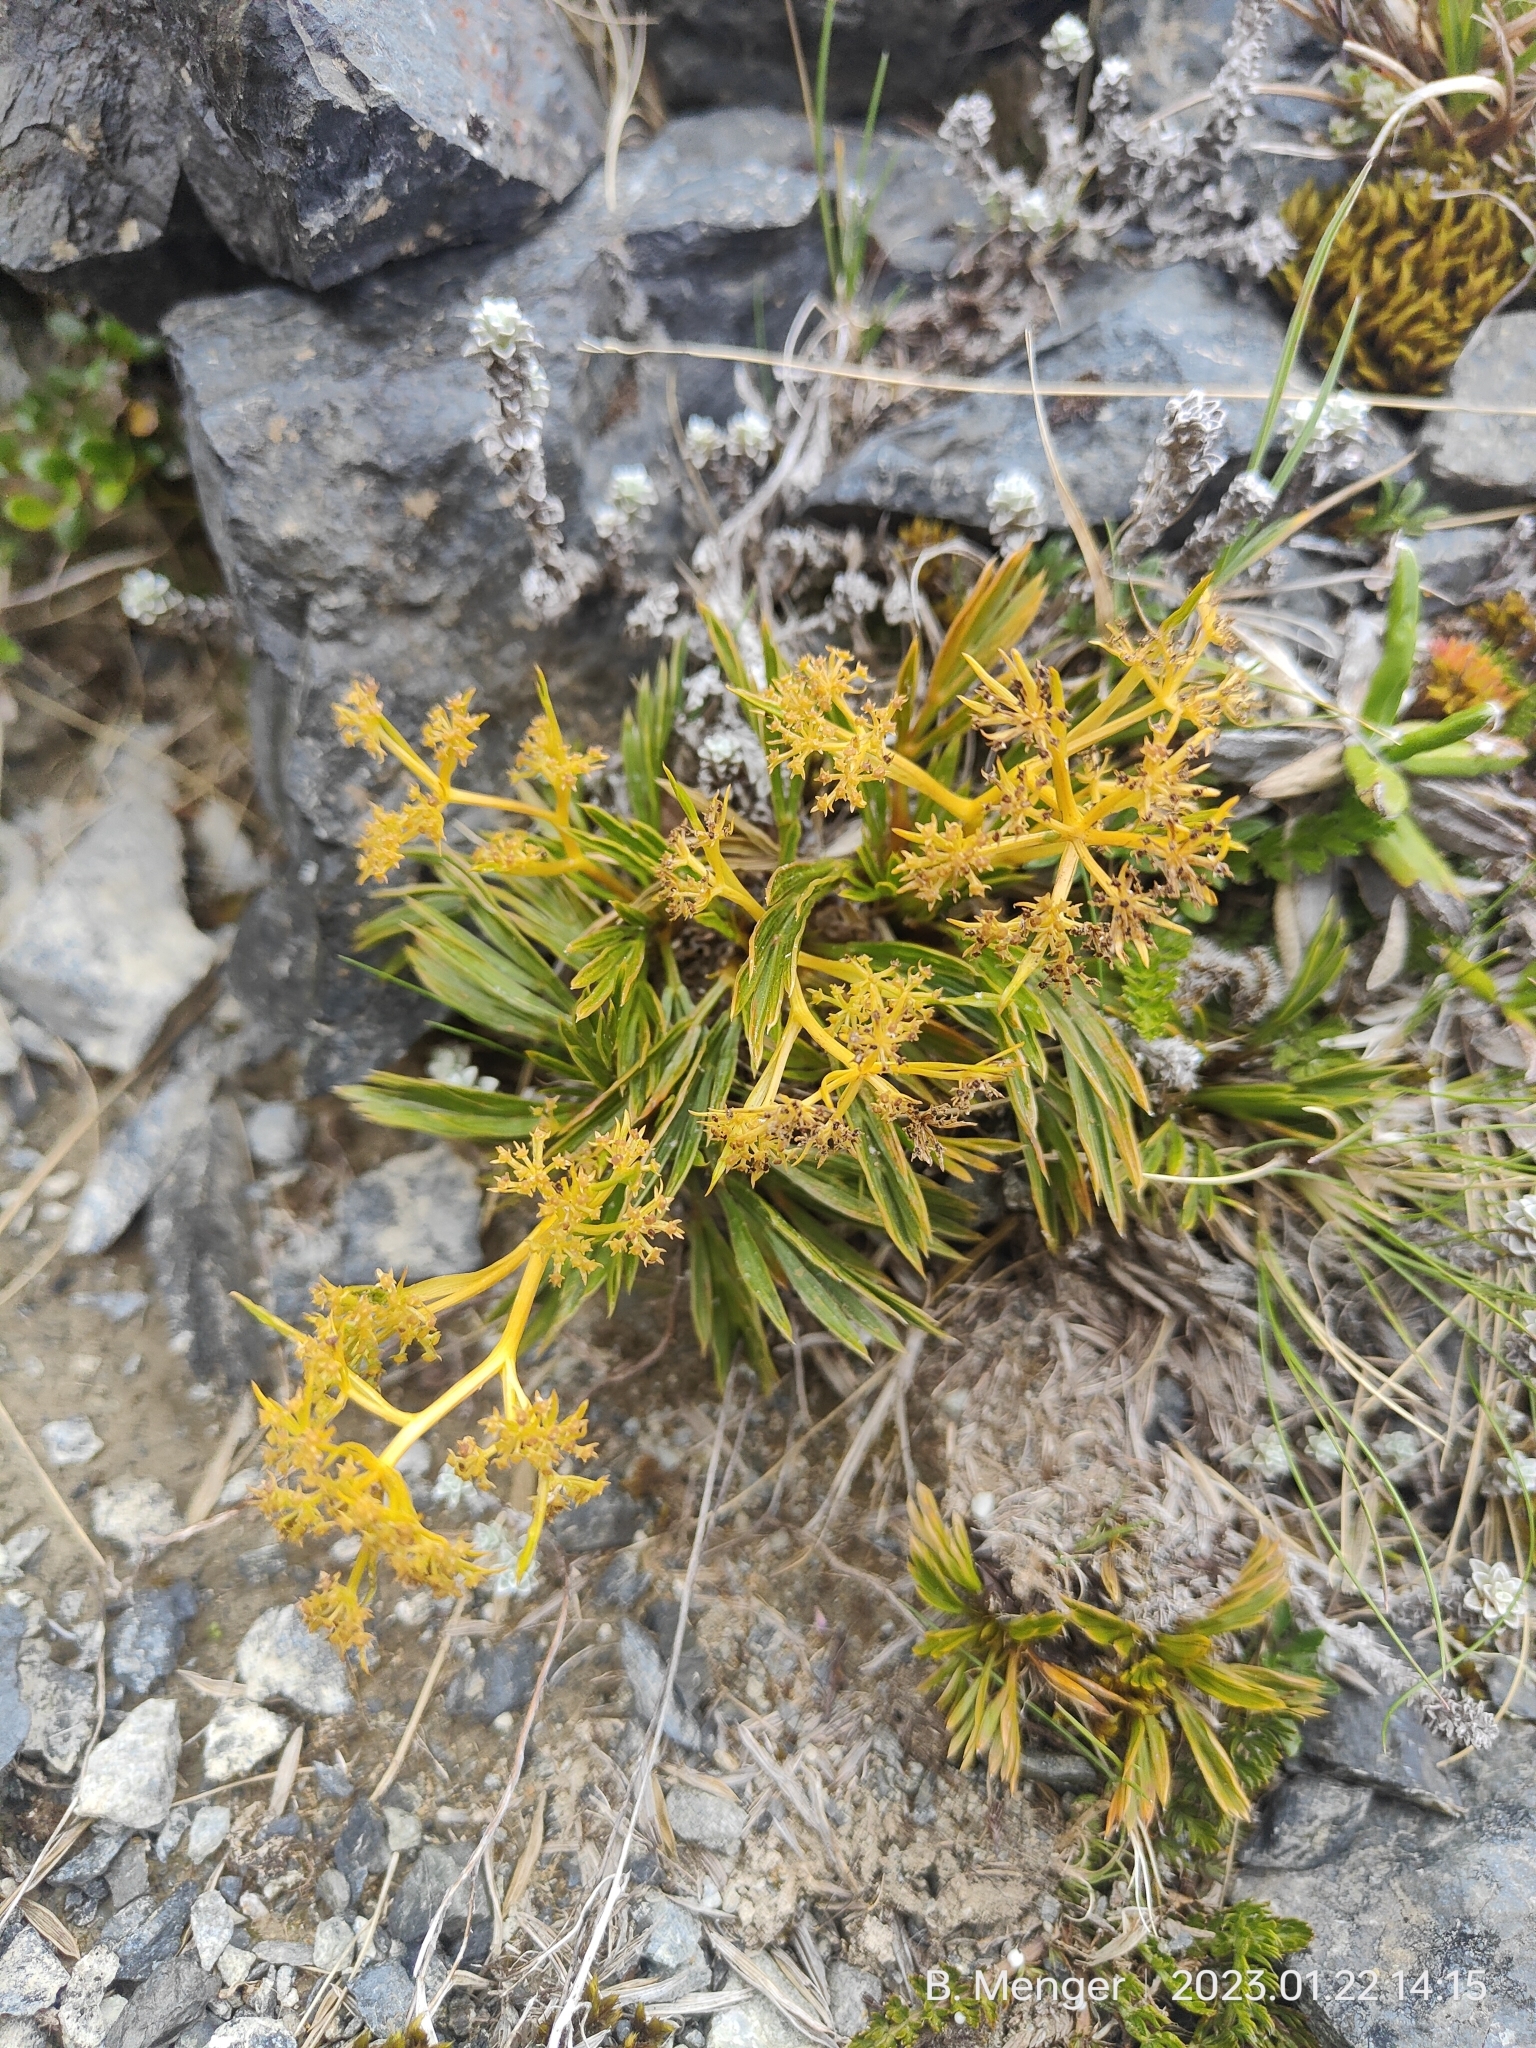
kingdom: Plantae
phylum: Tracheophyta
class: Magnoliopsida
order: Apiales
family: Apiaceae
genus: Aciphylla
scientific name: Aciphylla monroi
